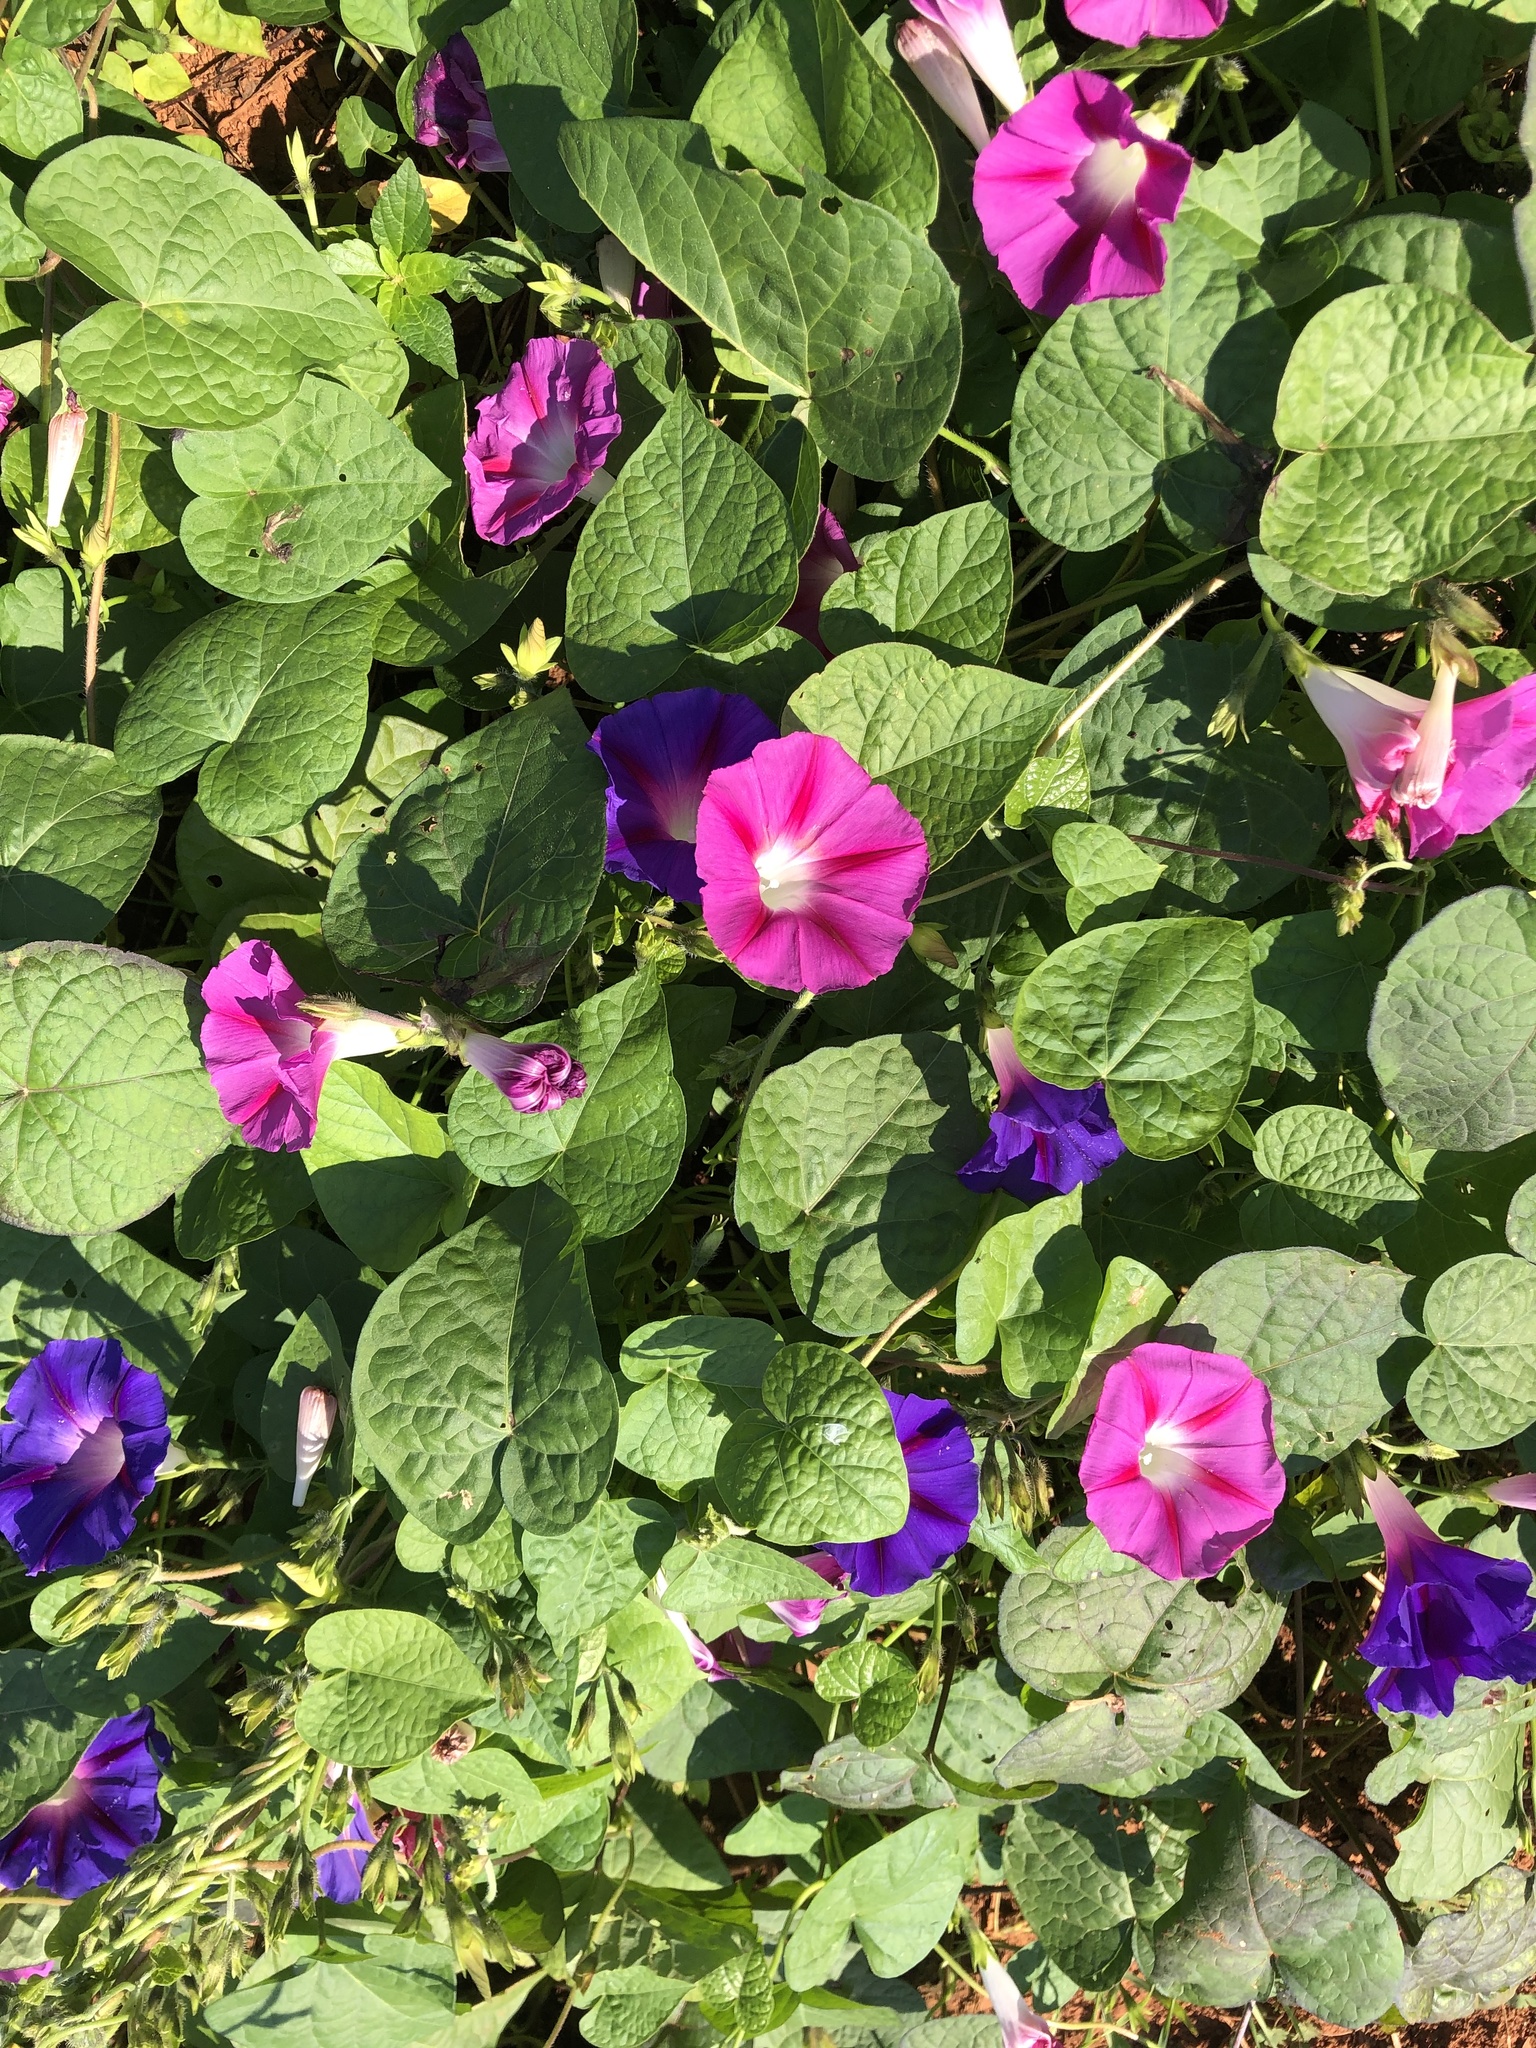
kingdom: Plantae
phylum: Tracheophyta
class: Magnoliopsida
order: Solanales
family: Convolvulaceae
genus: Ipomoea
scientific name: Ipomoea purpurea
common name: Common morning-glory
